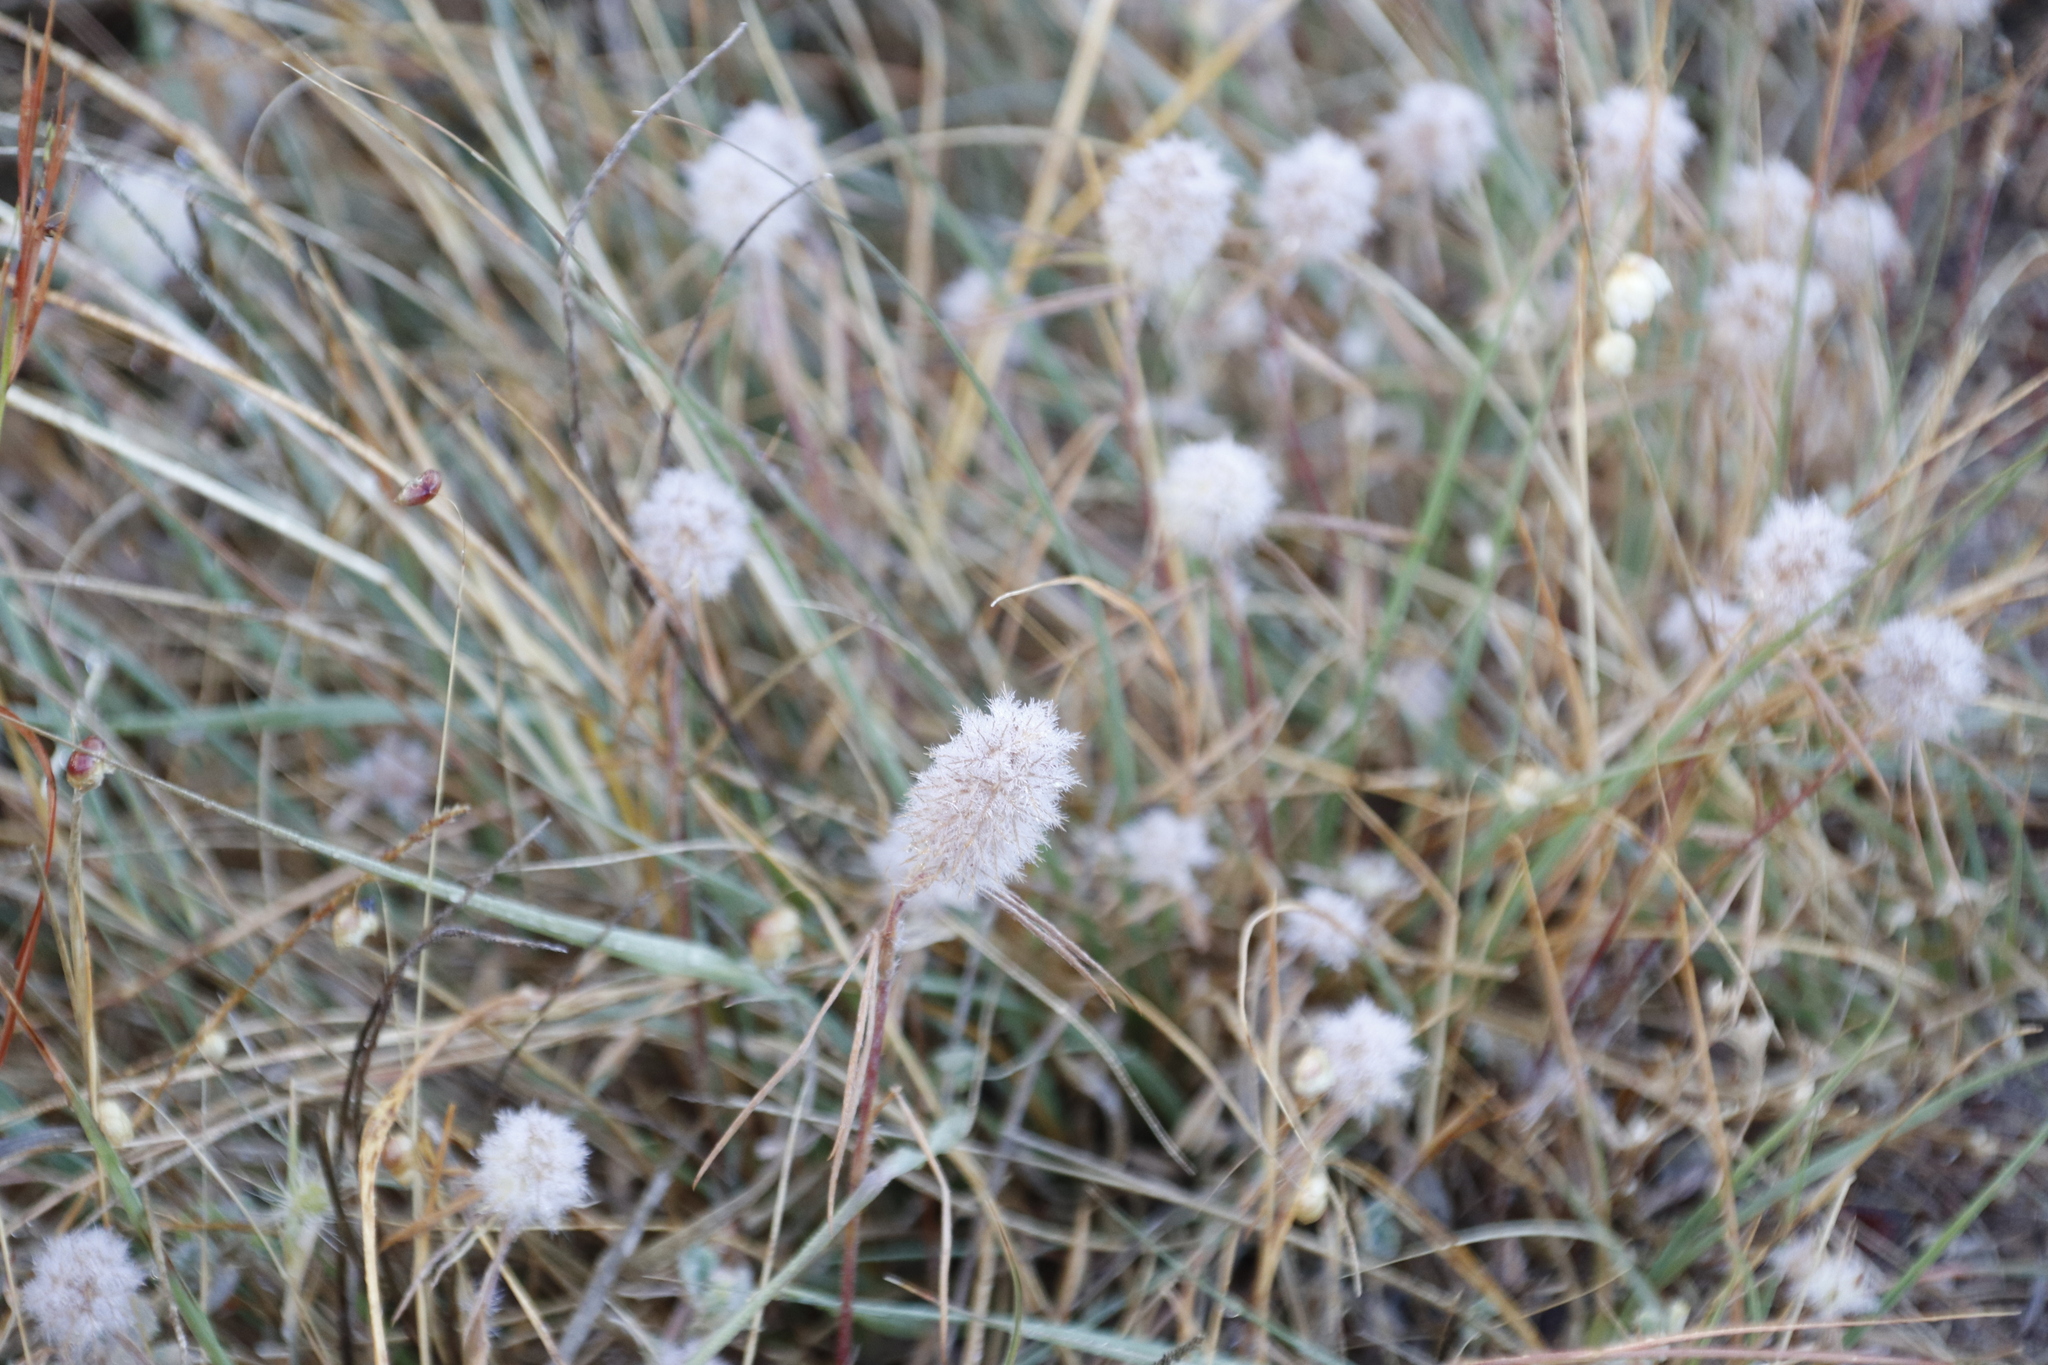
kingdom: Plantae
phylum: Tracheophyta
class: Magnoliopsida
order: Fabales
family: Fabaceae
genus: Trifolium
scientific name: Trifolium angustifolium
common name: Narrow clover
